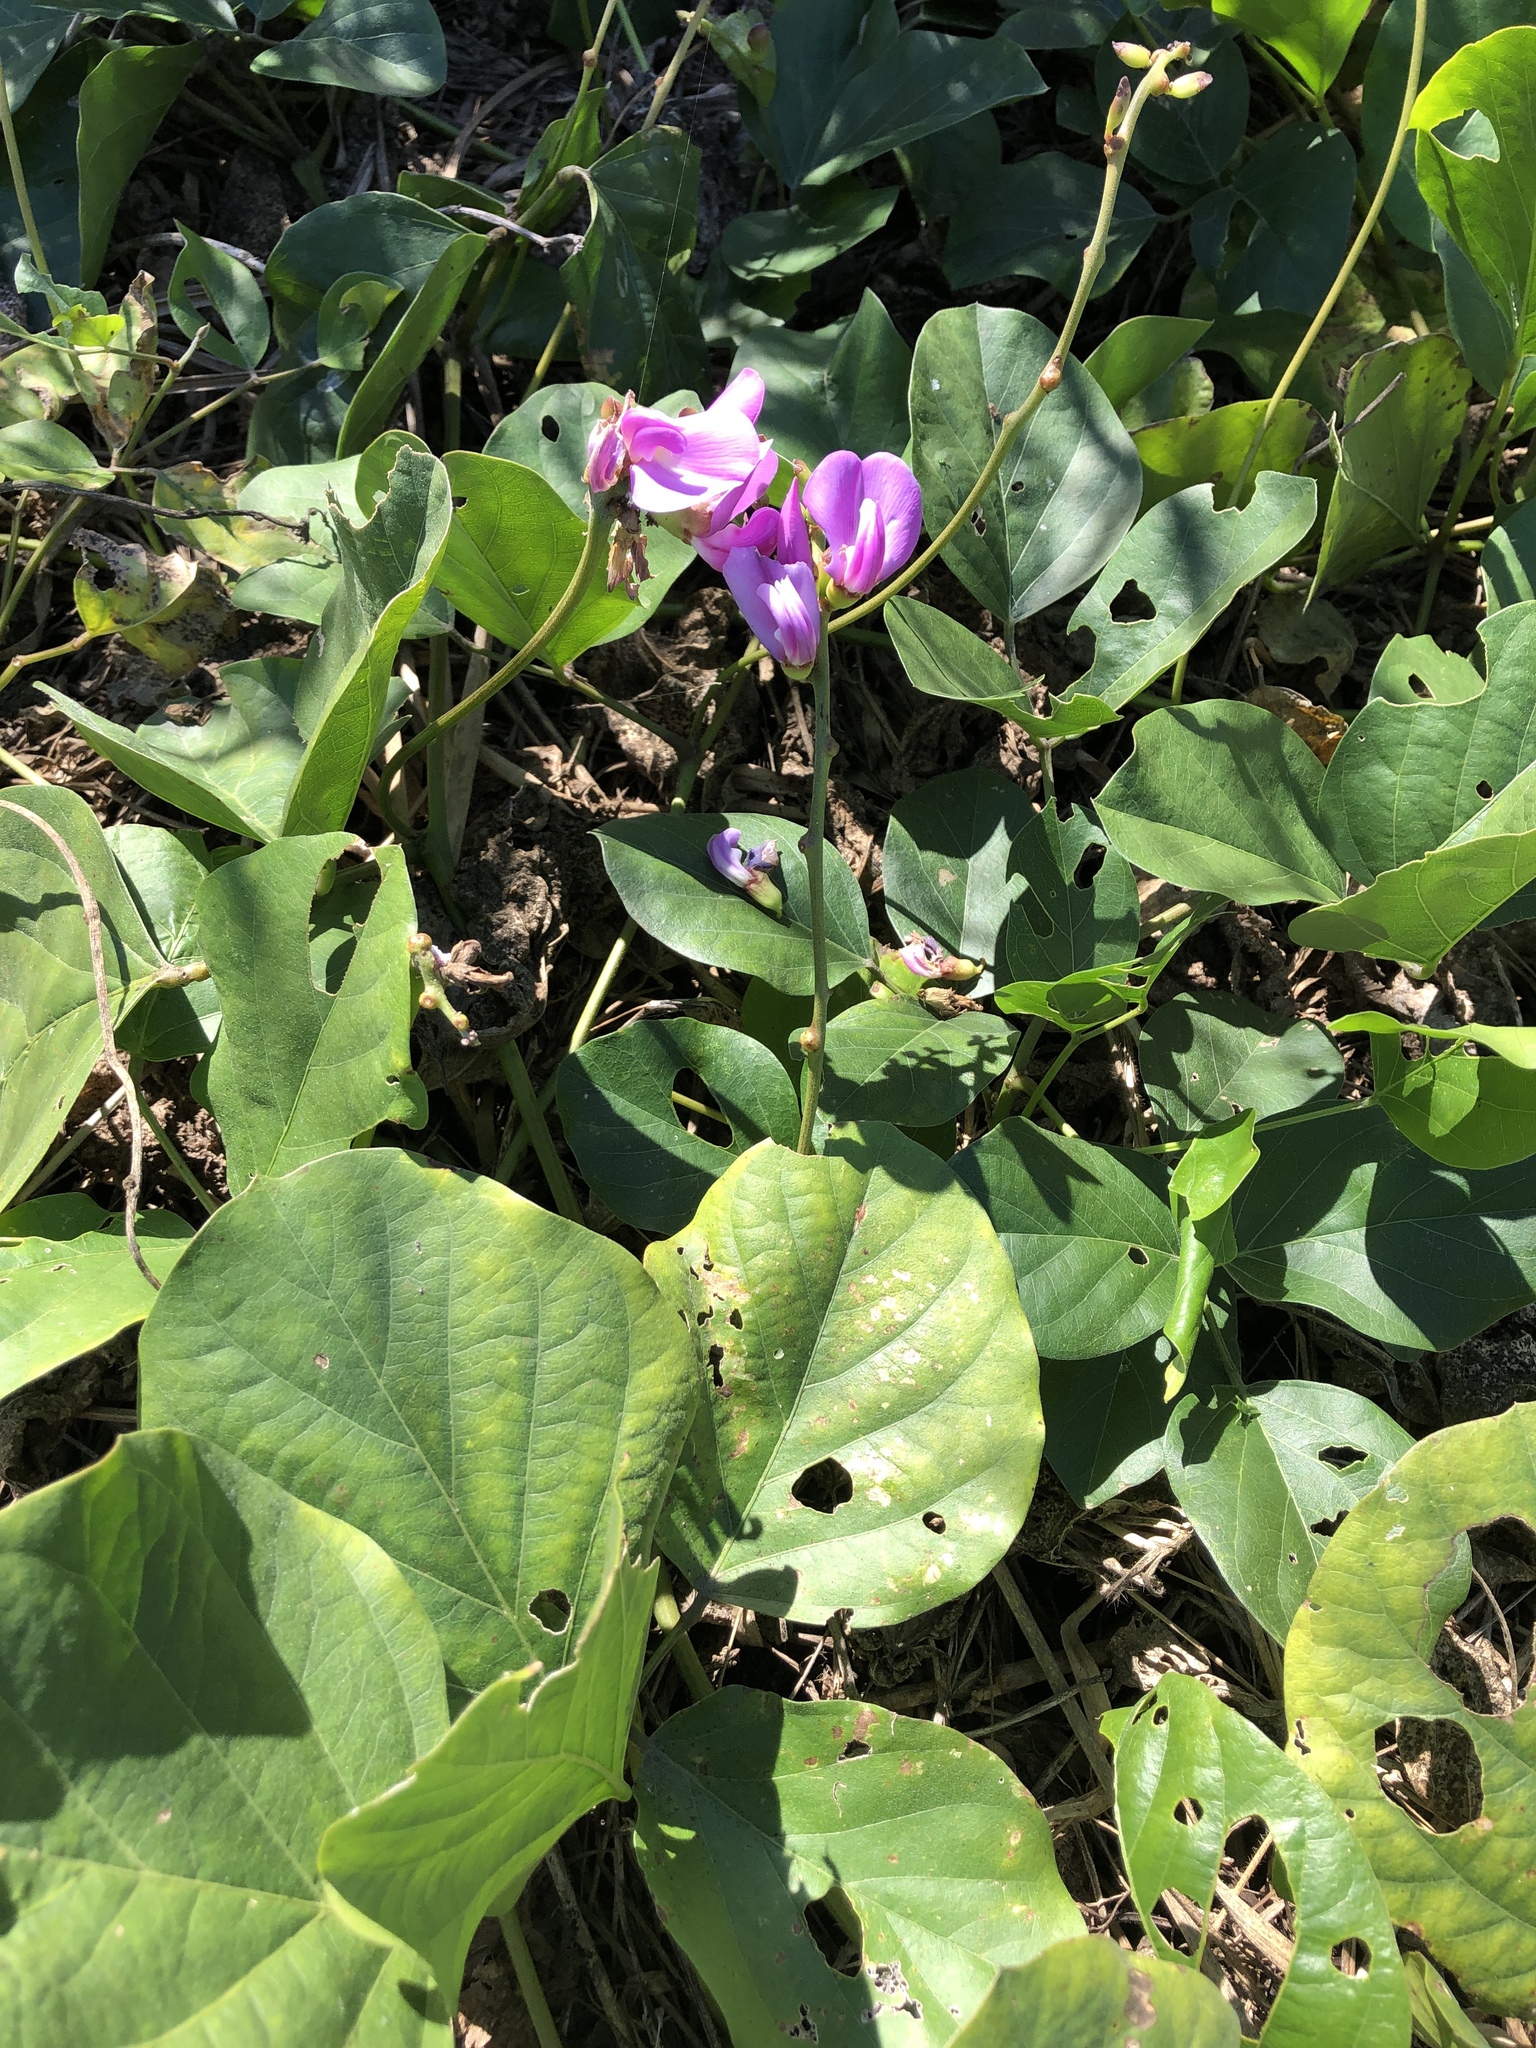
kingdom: Plantae
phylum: Tracheophyta
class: Magnoliopsida
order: Fabales
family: Fabaceae
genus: Canavalia
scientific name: Canavalia rosea
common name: Beach-bean
